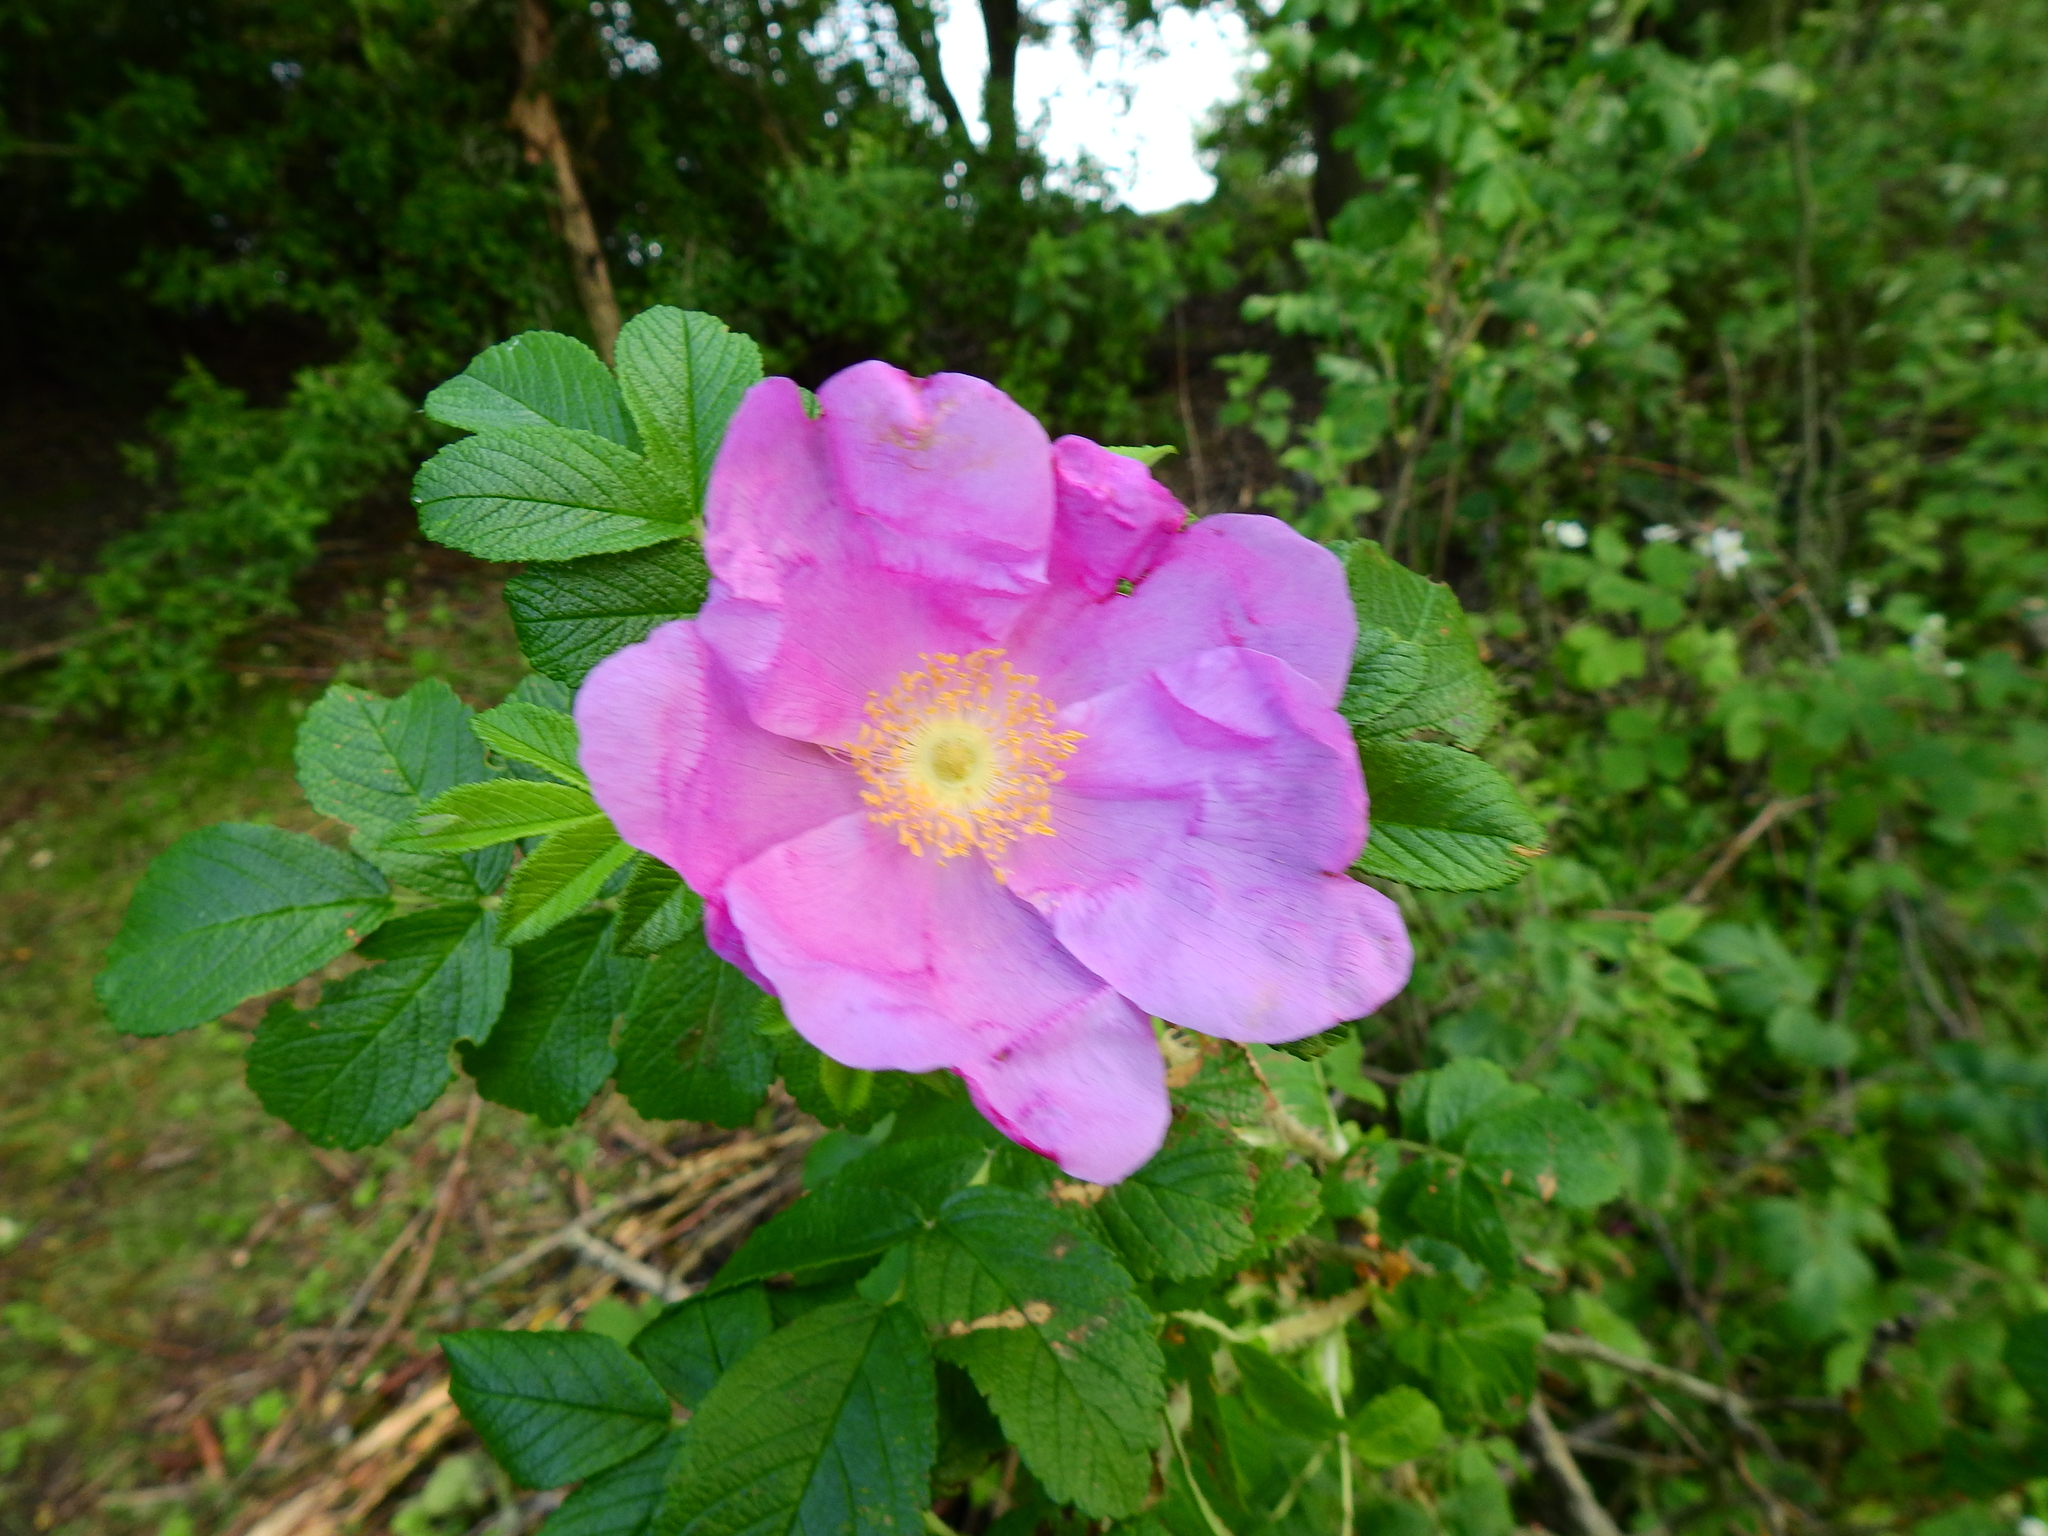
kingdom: Plantae
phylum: Tracheophyta
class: Magnoliopsida
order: Rosales
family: Rosaceae
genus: Rosa
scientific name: Rosa rugosa
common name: Japanese rose
